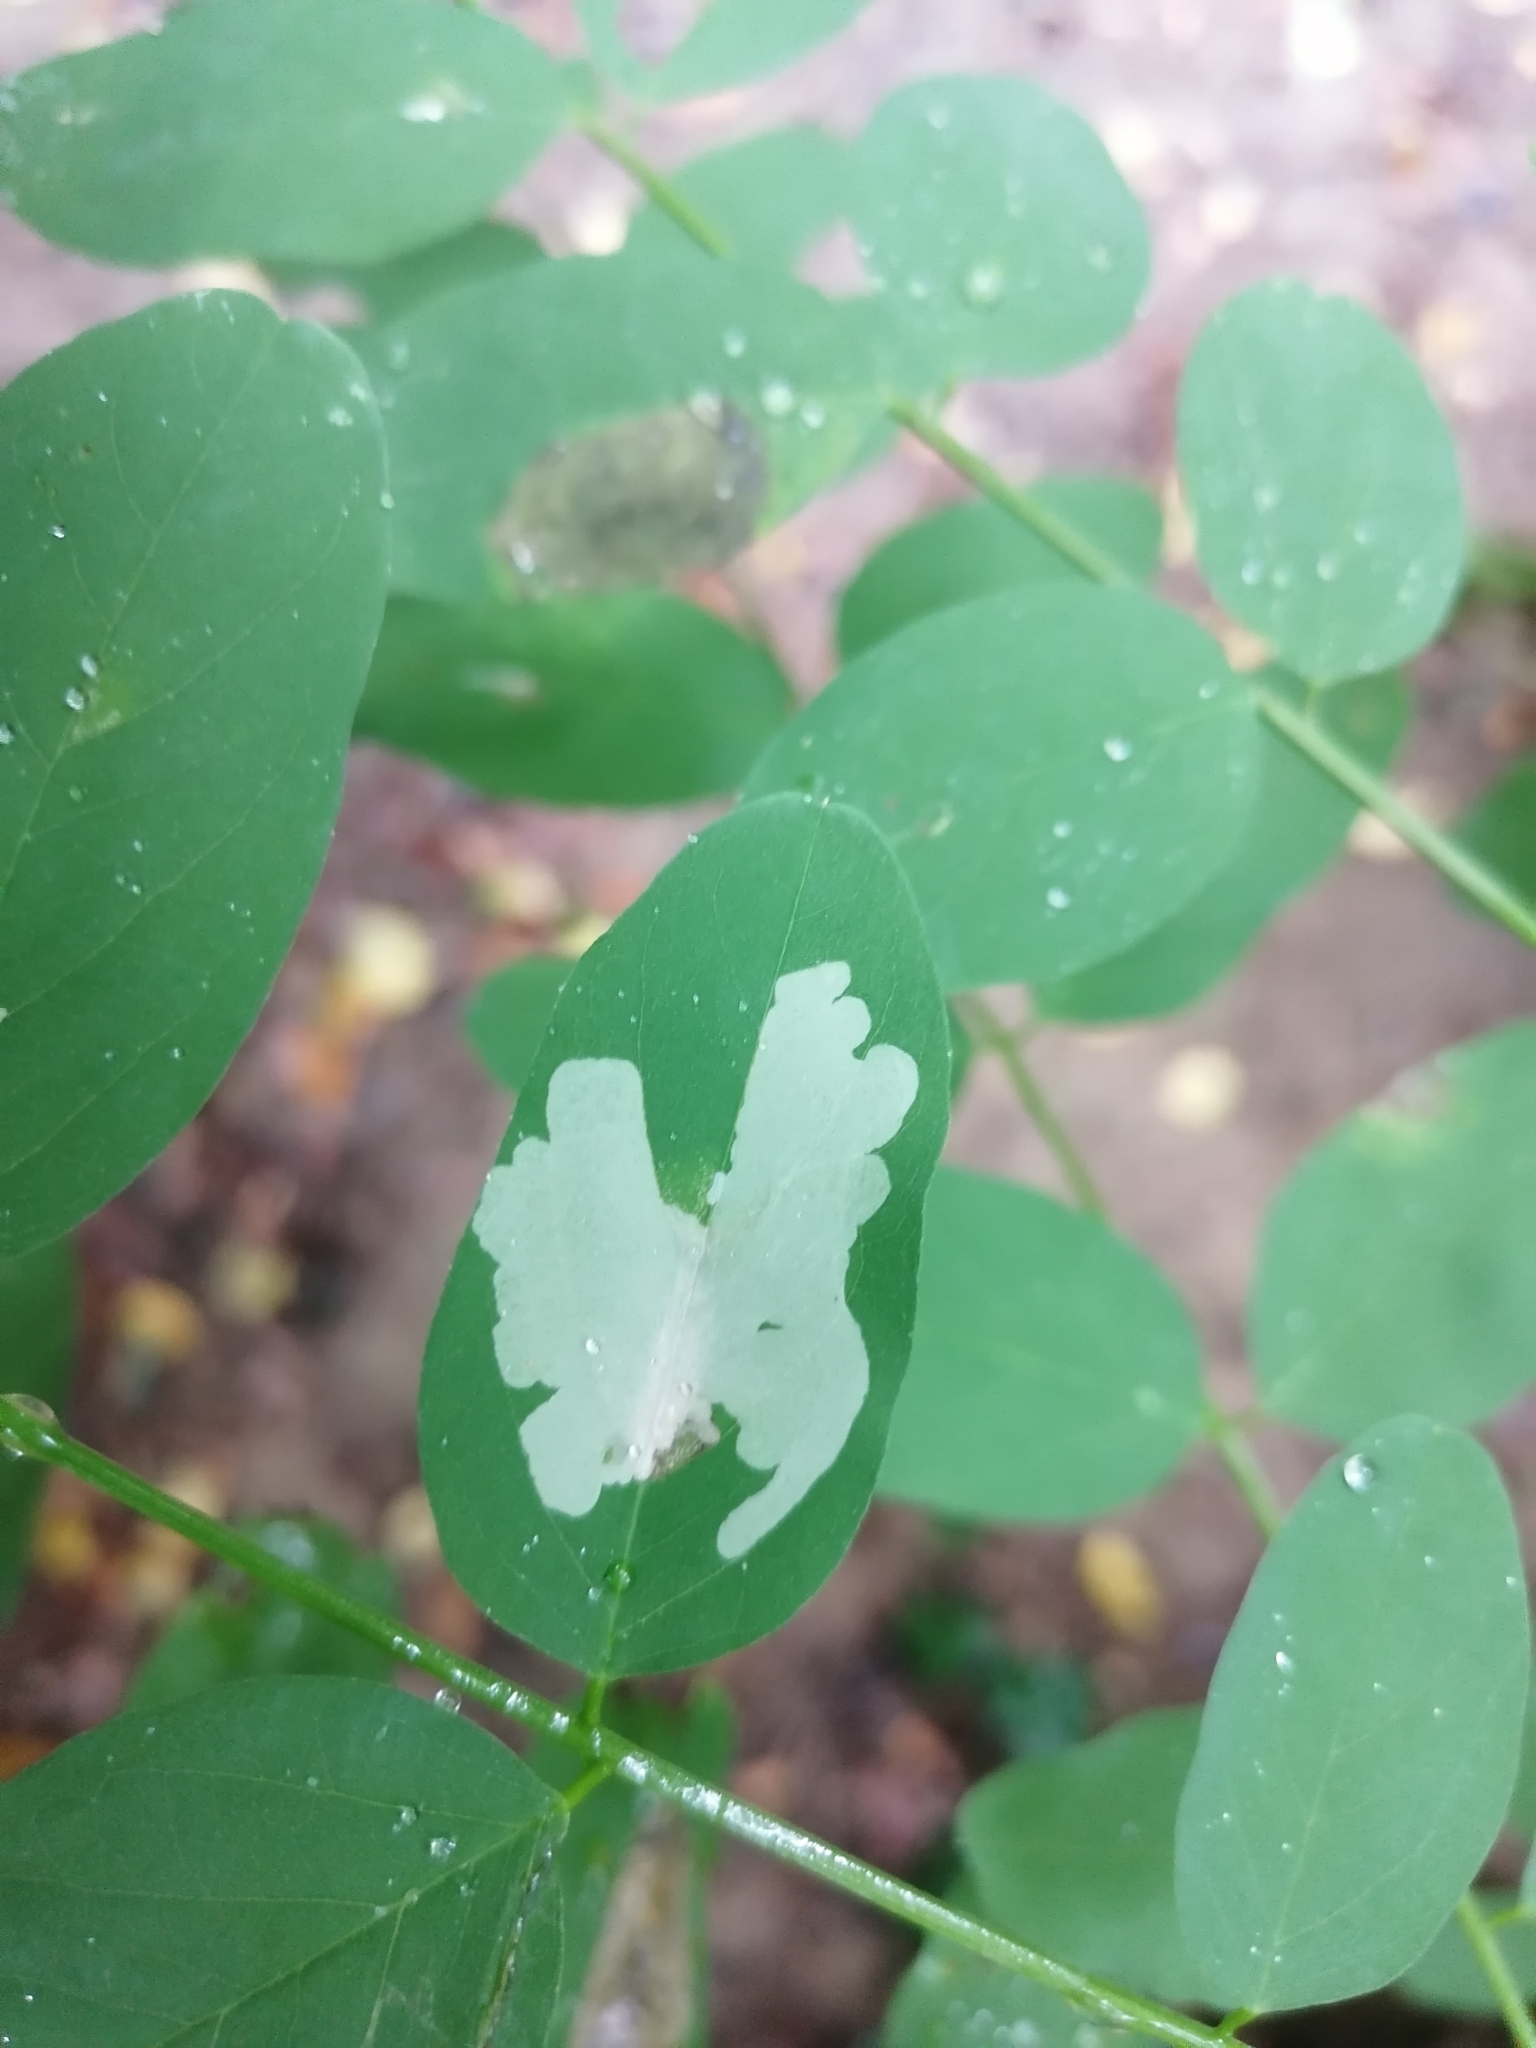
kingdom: Animalia
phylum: Arthropoda
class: Insecta
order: Lepidoptera
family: Gracillariidae
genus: Parectopa
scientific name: Parectopa robiniella
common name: Locust digitate leafminer
